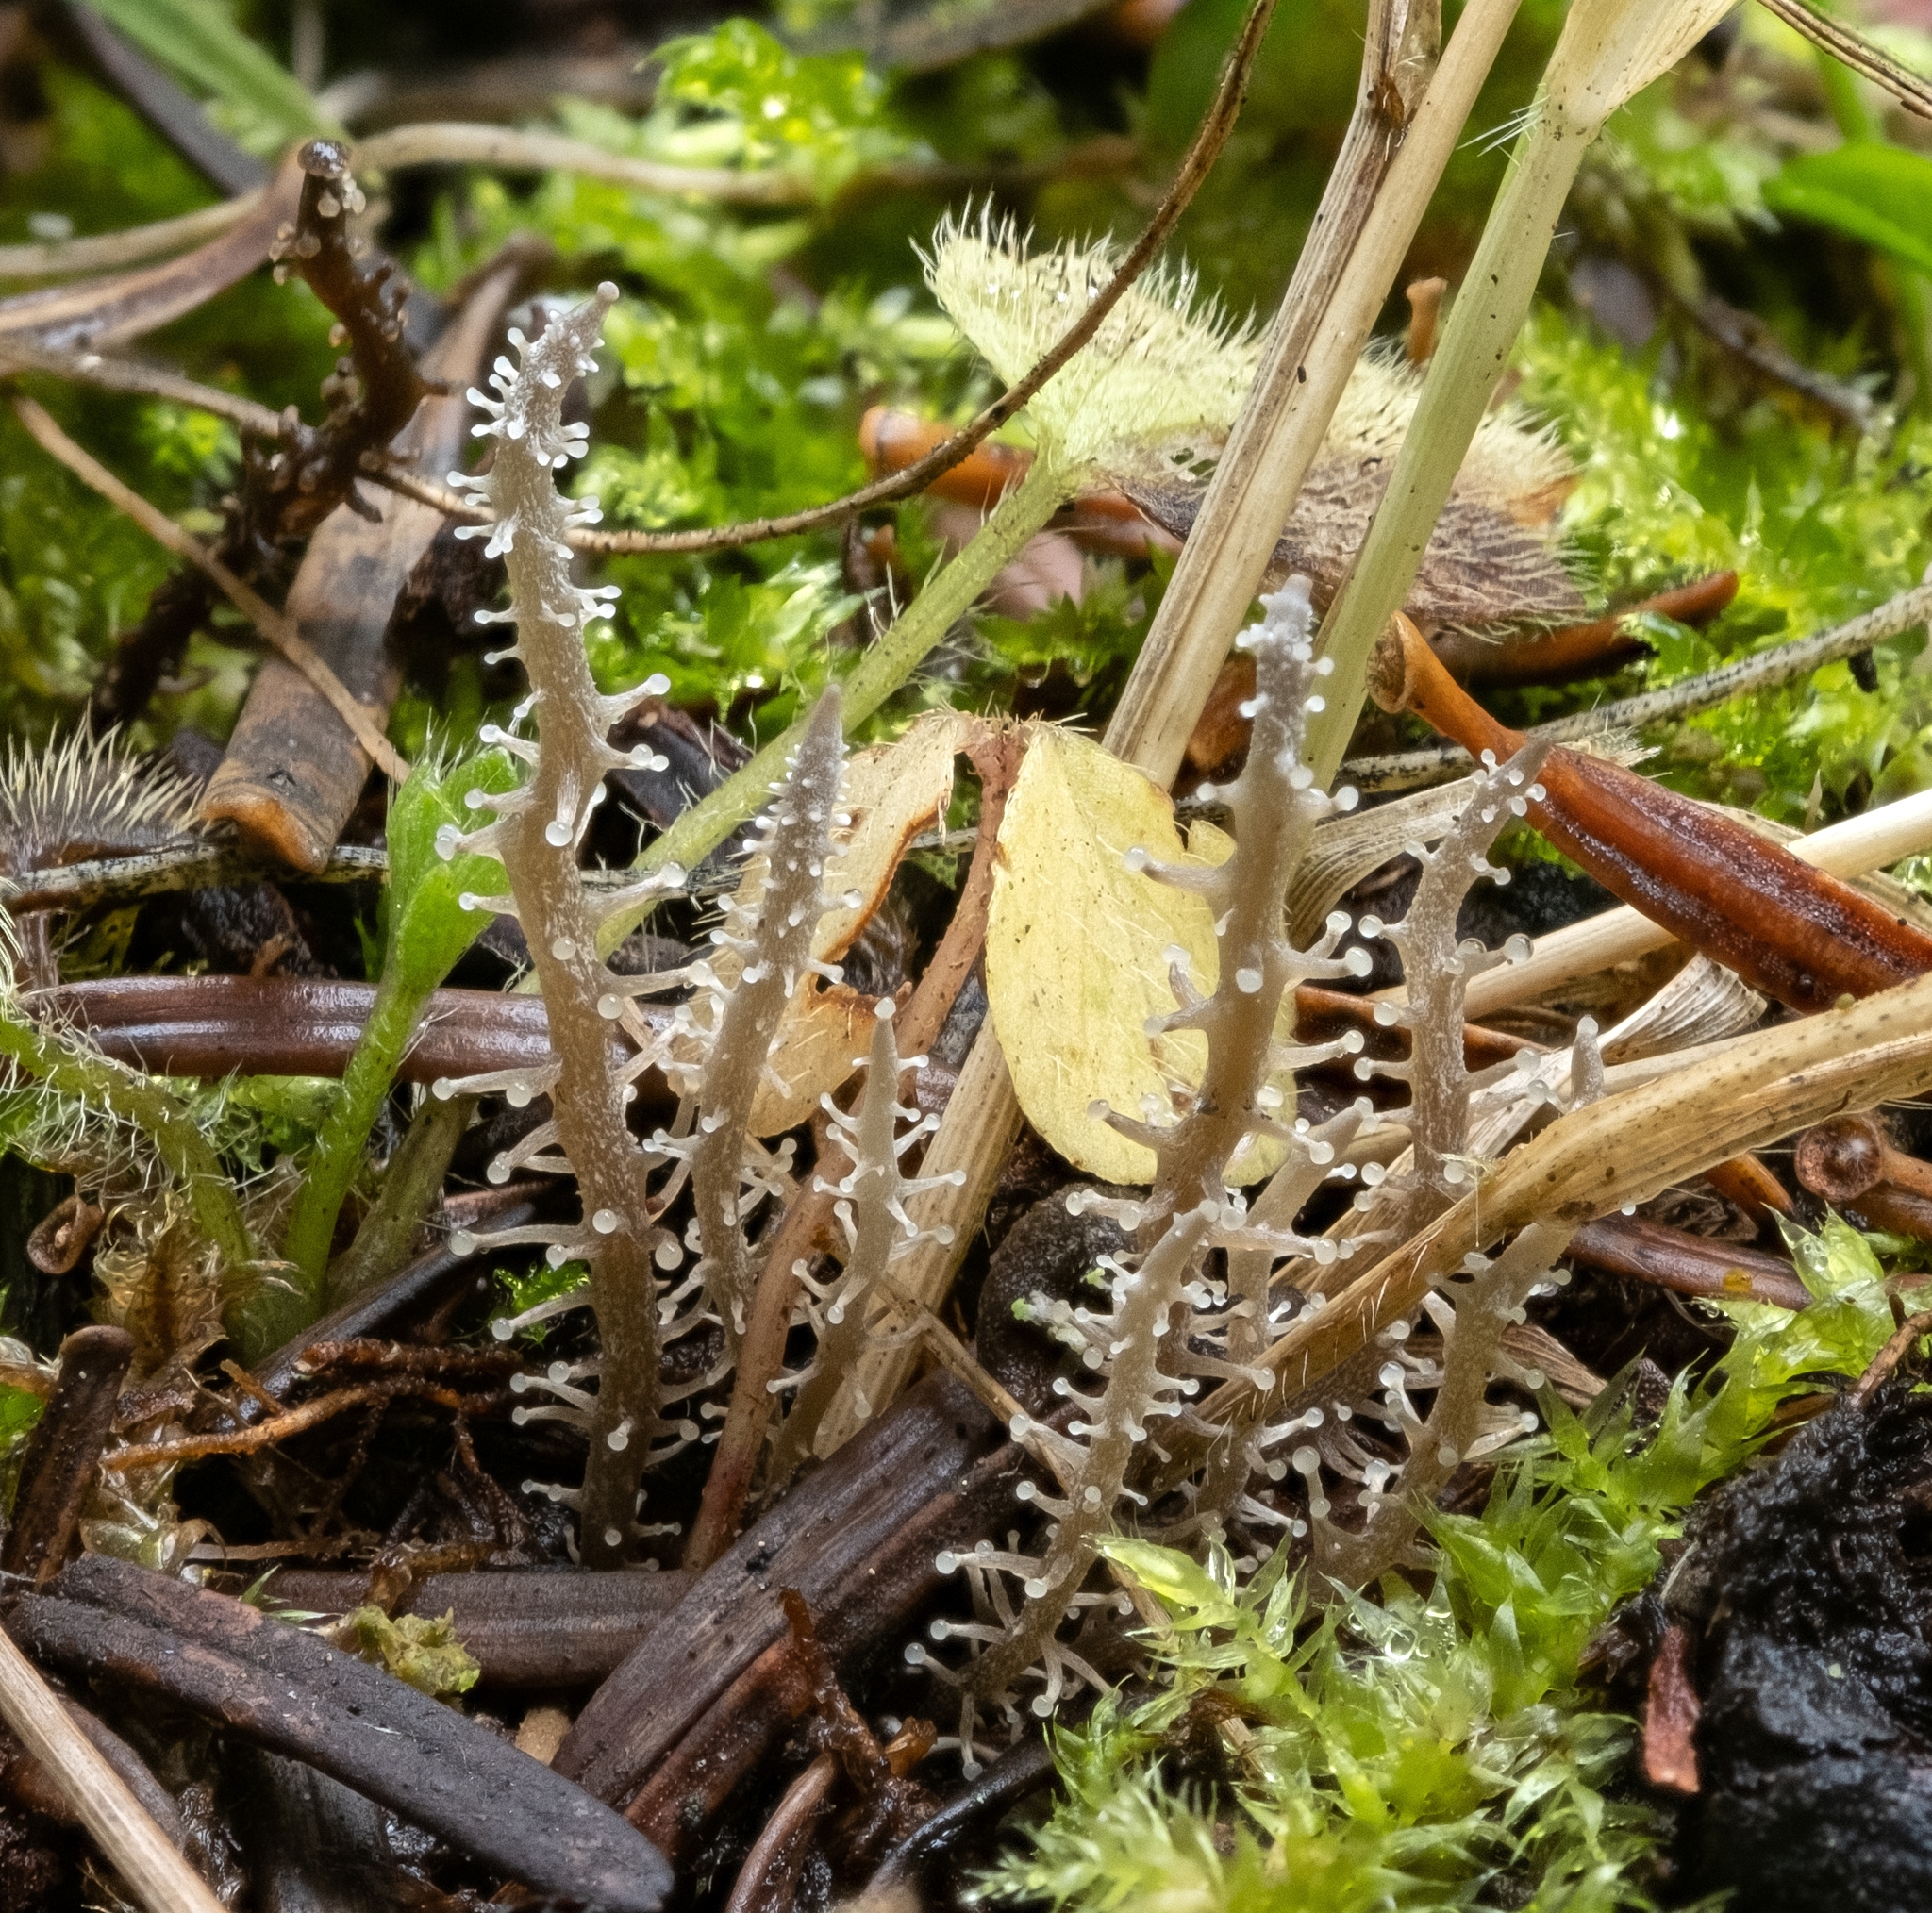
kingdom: Fungi
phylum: Basidiomycota
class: Agaricomycetes
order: Agaricales
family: Tricholomataceae
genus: Dendrocollybia
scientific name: Dendrocollybia racemosa
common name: Branched shanklet
